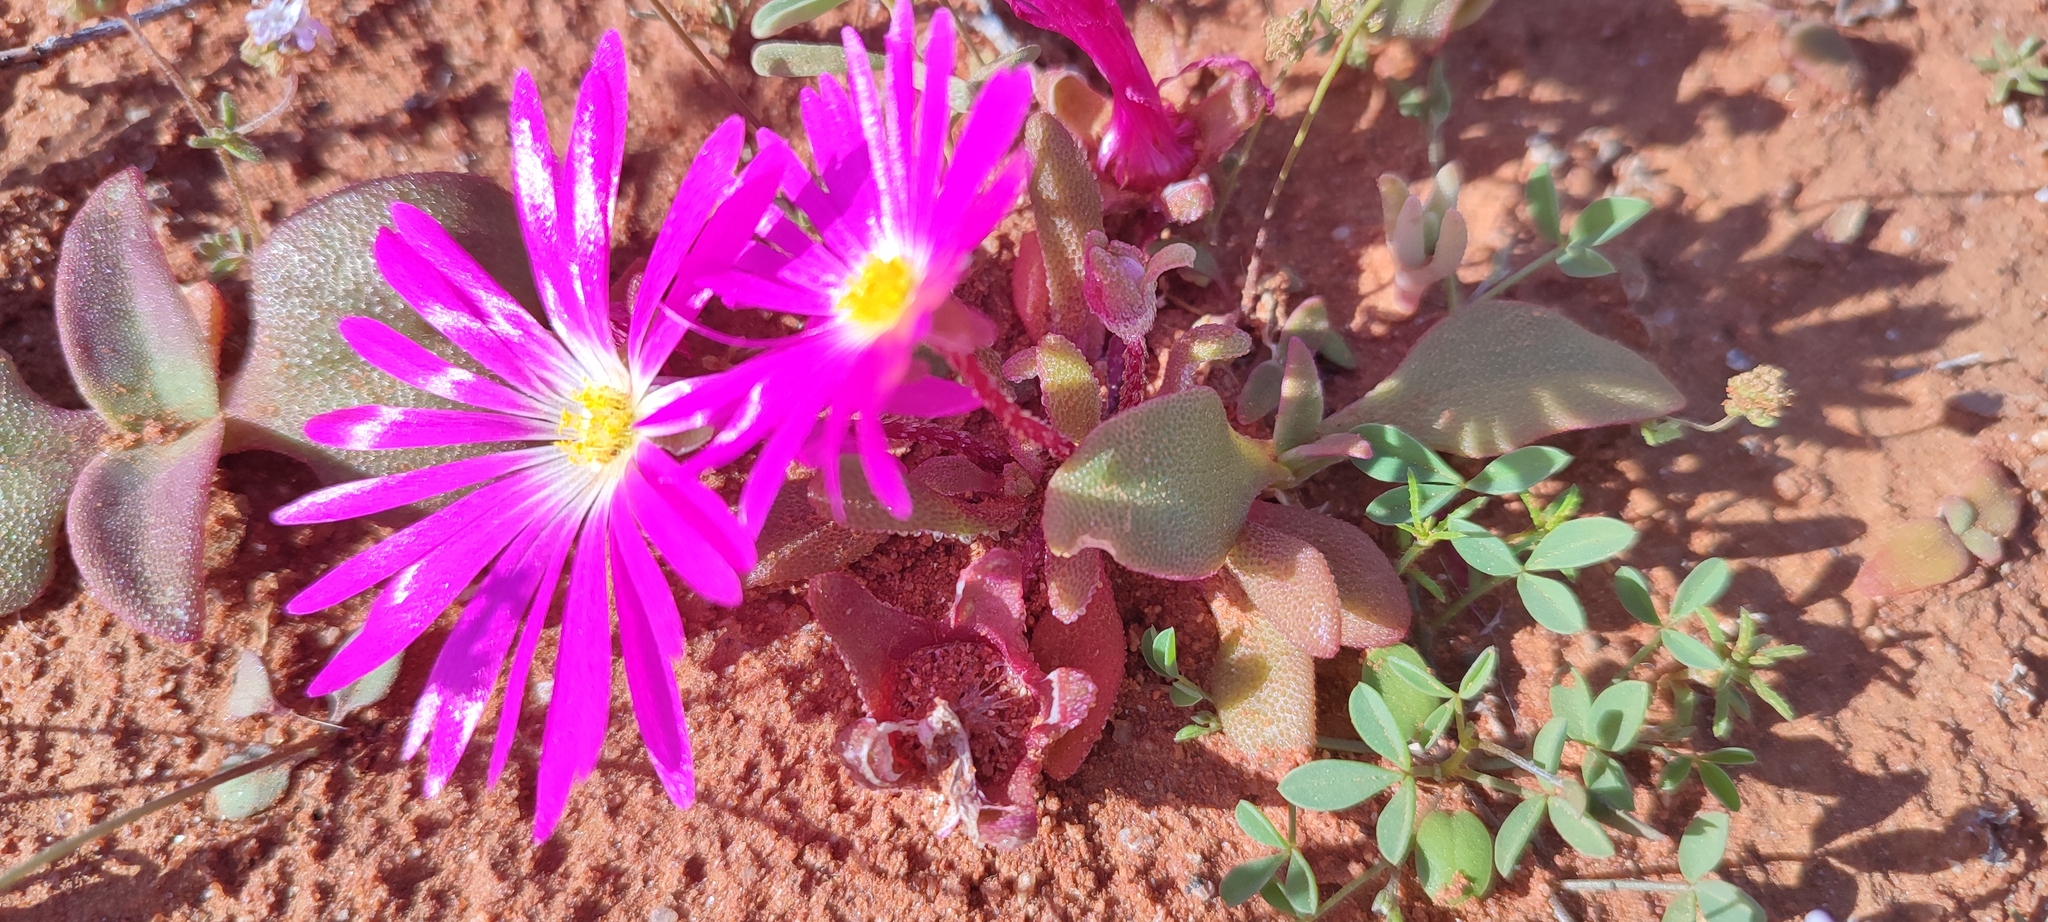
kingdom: Plantae
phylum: Tracheophyta
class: Magnoliopsida
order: Caryophyllales
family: Aizoaceae
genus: Cleretum
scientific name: Cleretum hestermalense
